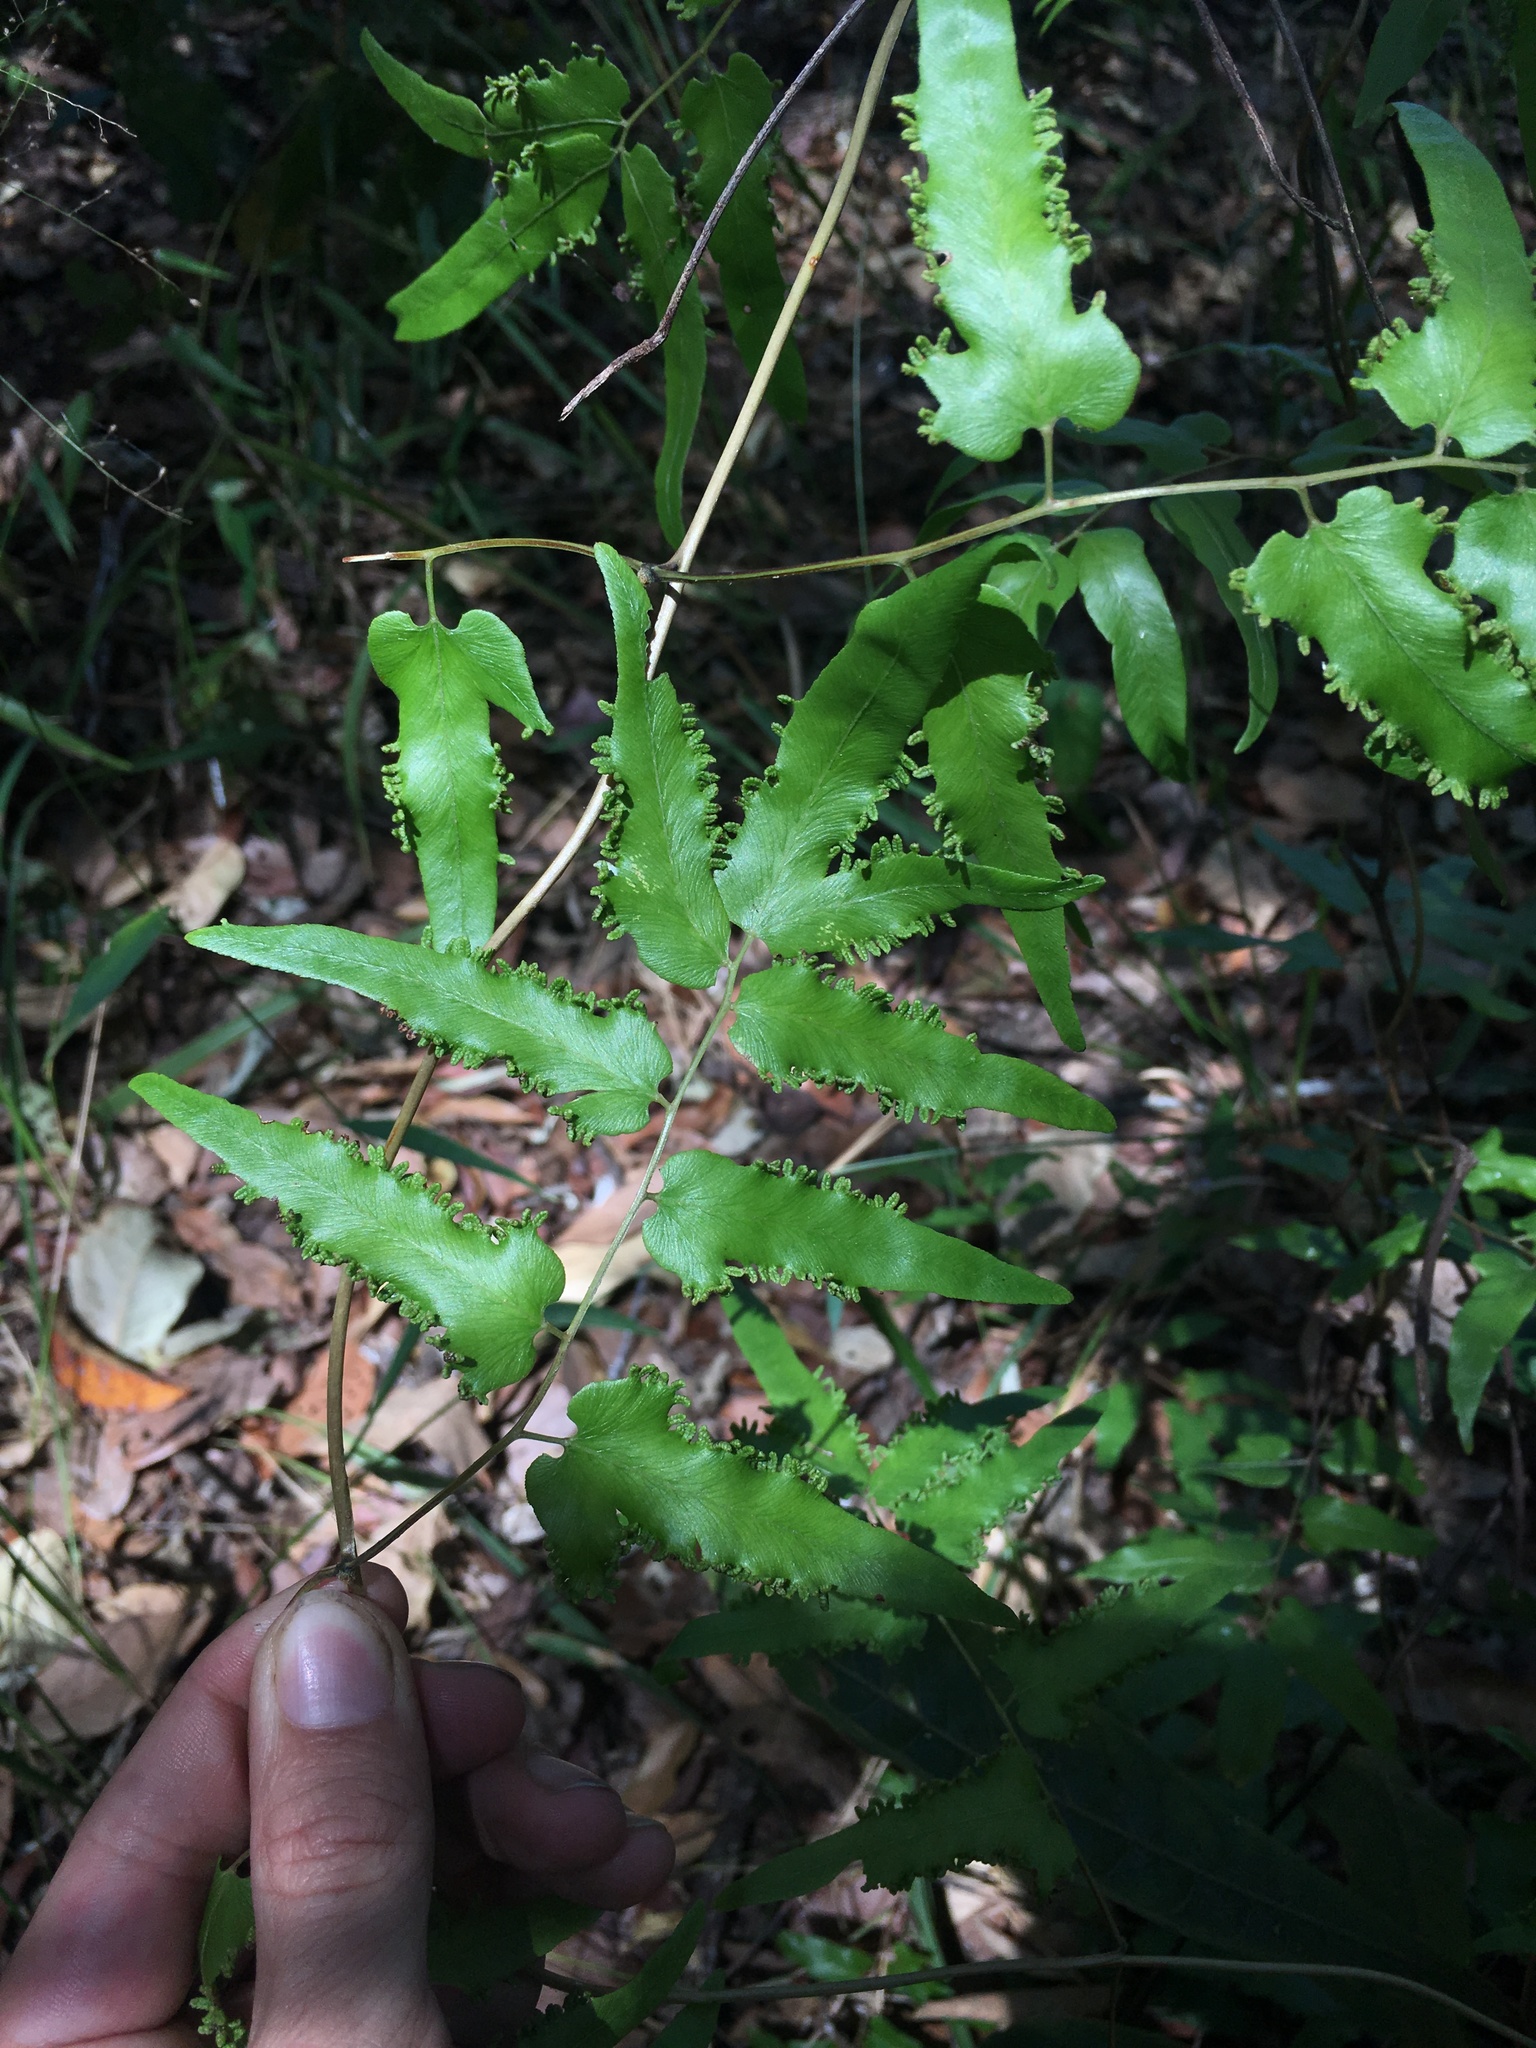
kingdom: Plantae
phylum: Tracheophyta
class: Polypodiopsida
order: Schizaeales
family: Lygodiaceae
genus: Lygodium
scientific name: Lygodium flexuosum
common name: Maidenhair creeper
